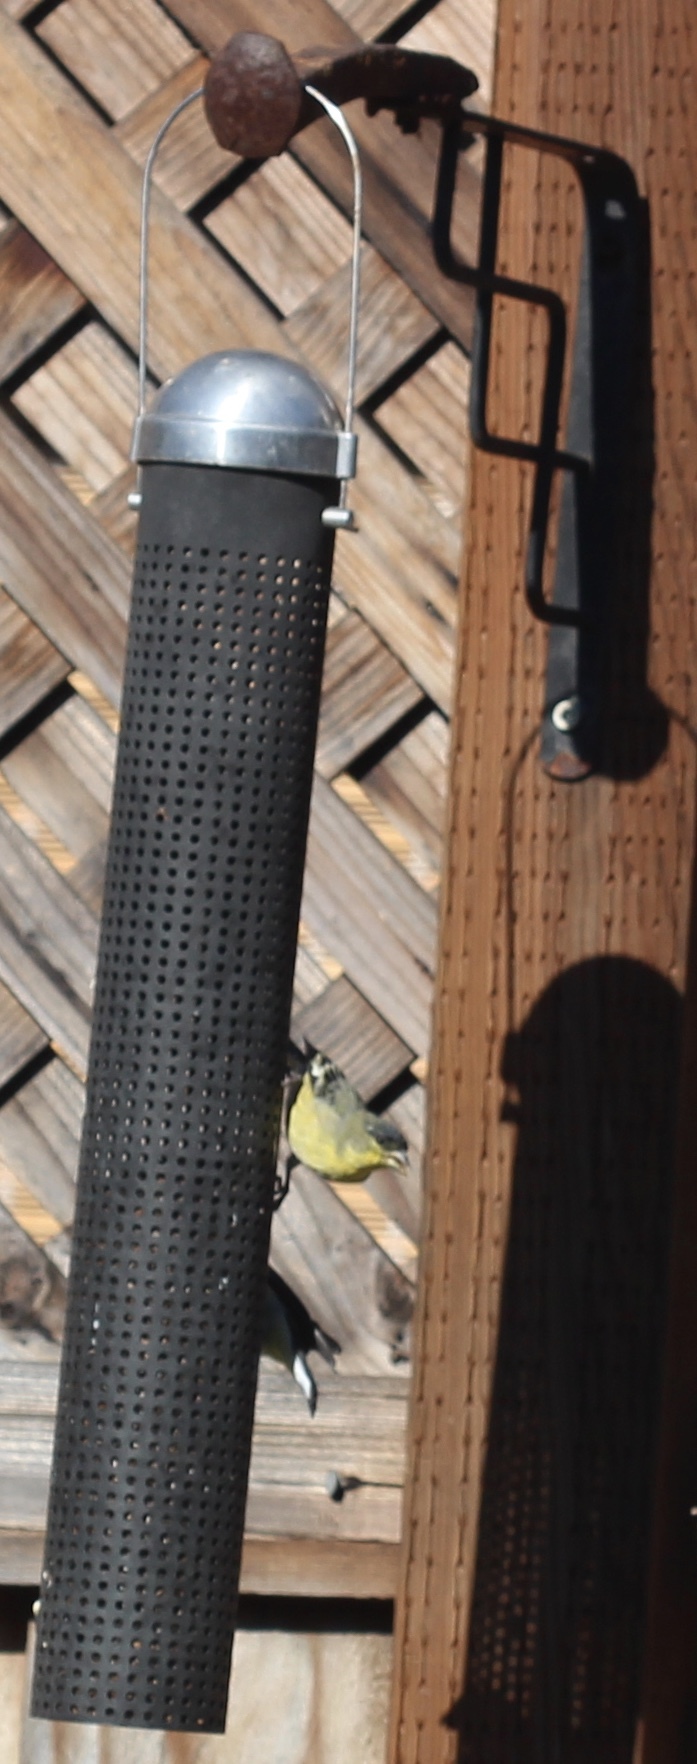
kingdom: Animalia
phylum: Chordata
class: Aves
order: Passeriformes
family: Fringillidae
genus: Spinus
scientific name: Spinus psaltria
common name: Lesser goldfinch
